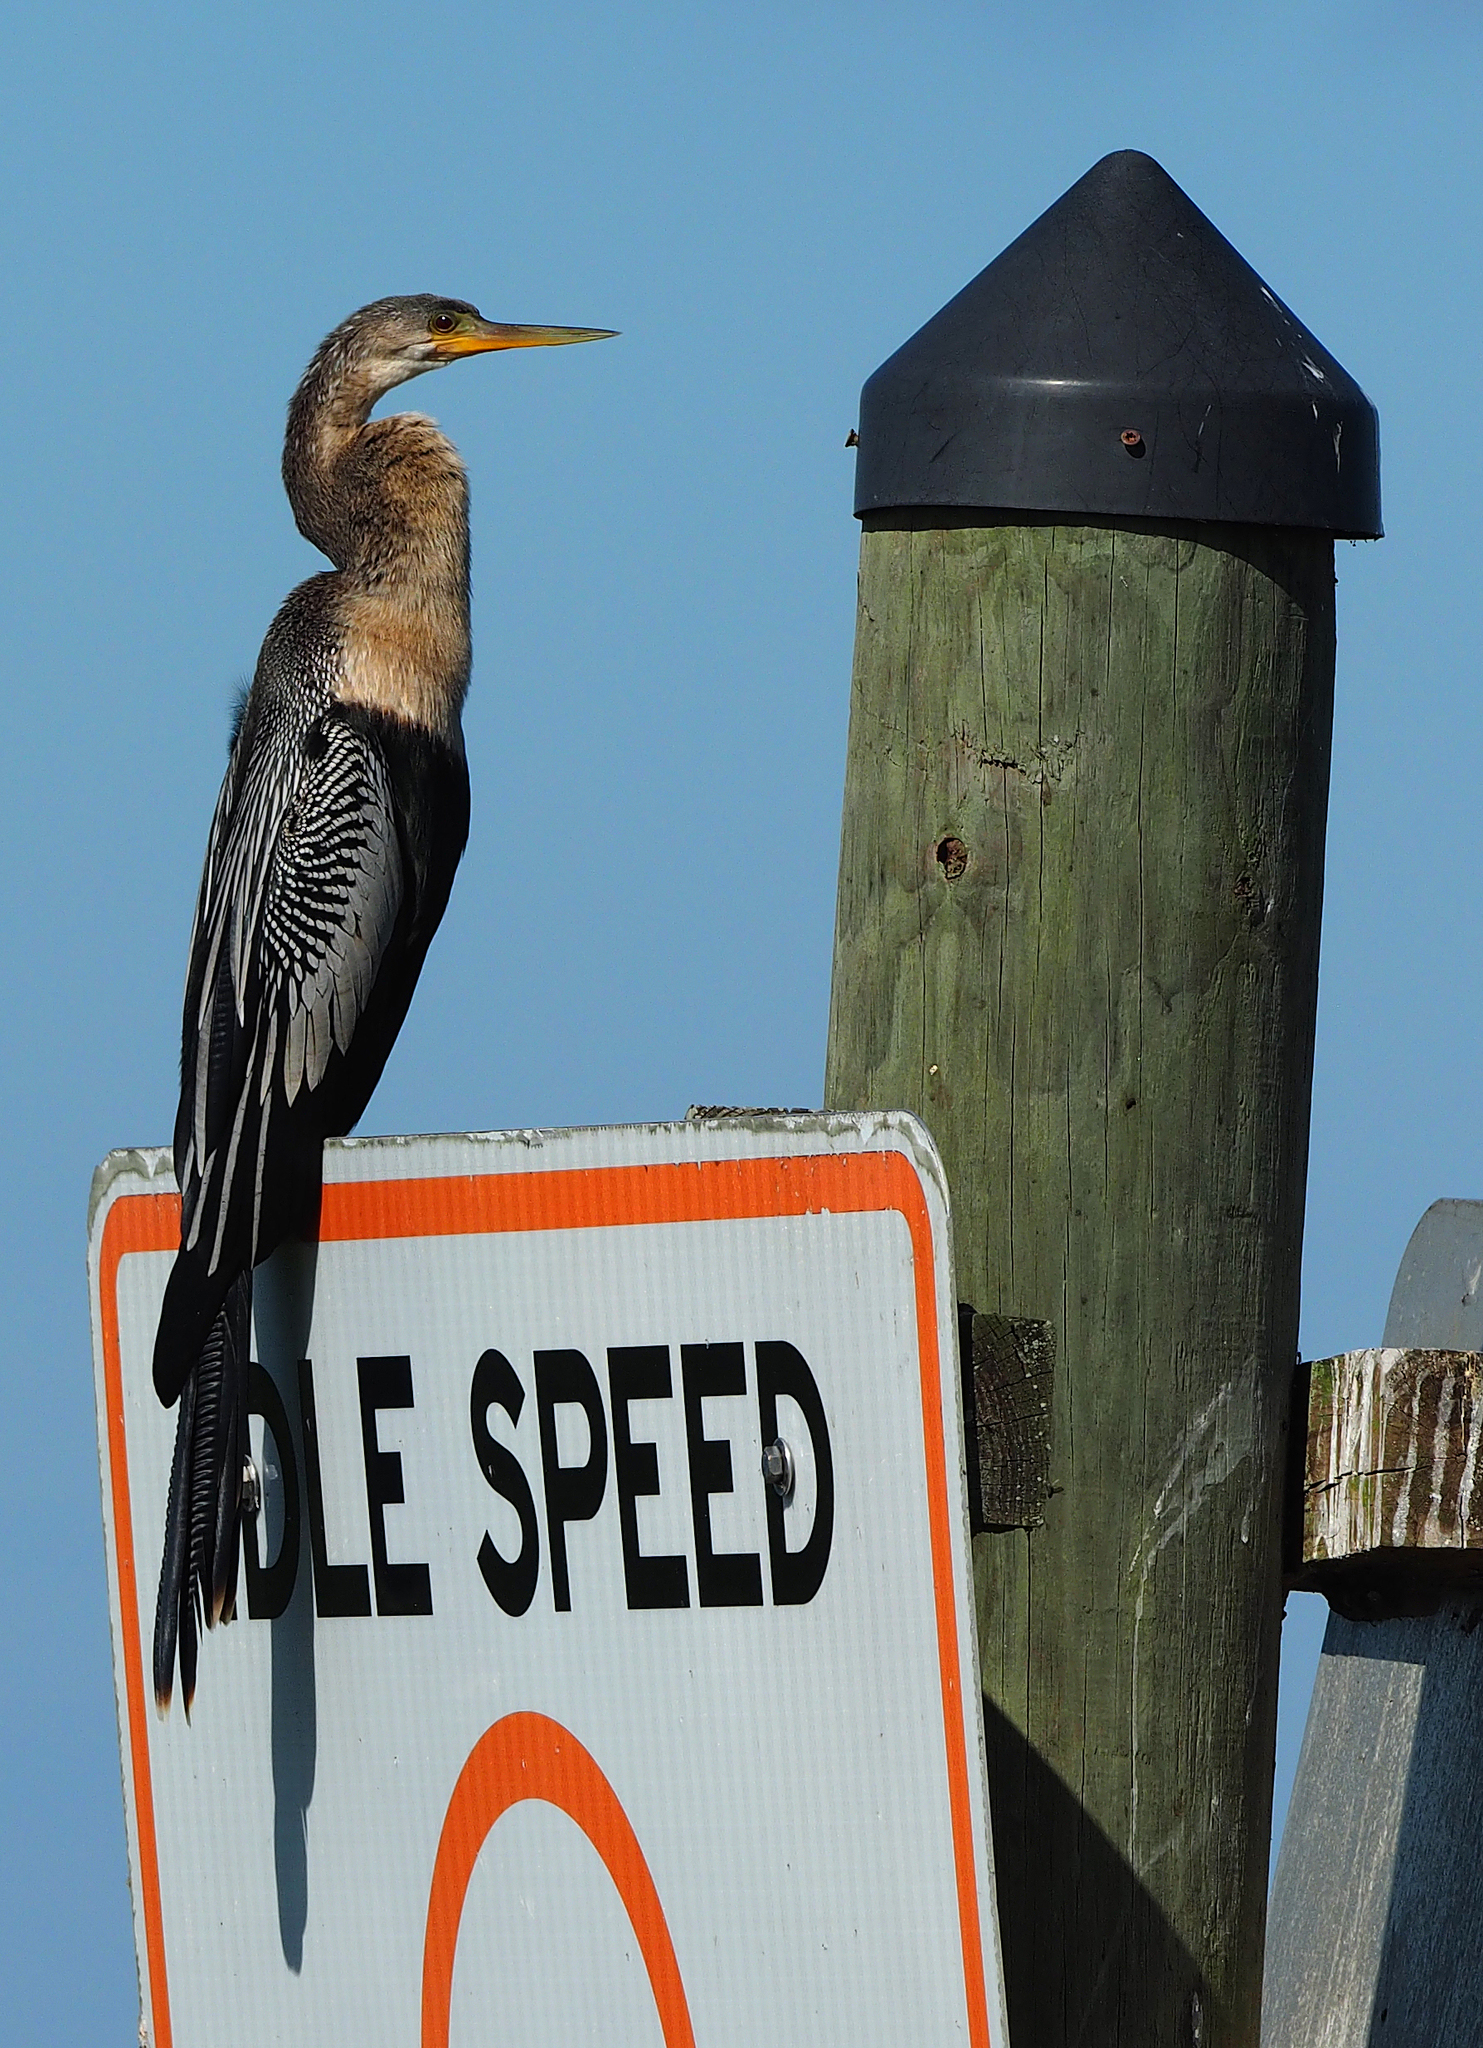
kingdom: Animalia
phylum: Chordata
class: Aves
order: Suliformes
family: Anhingidae
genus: Anhinga
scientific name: Anhinga anhinga
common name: Anhinga
